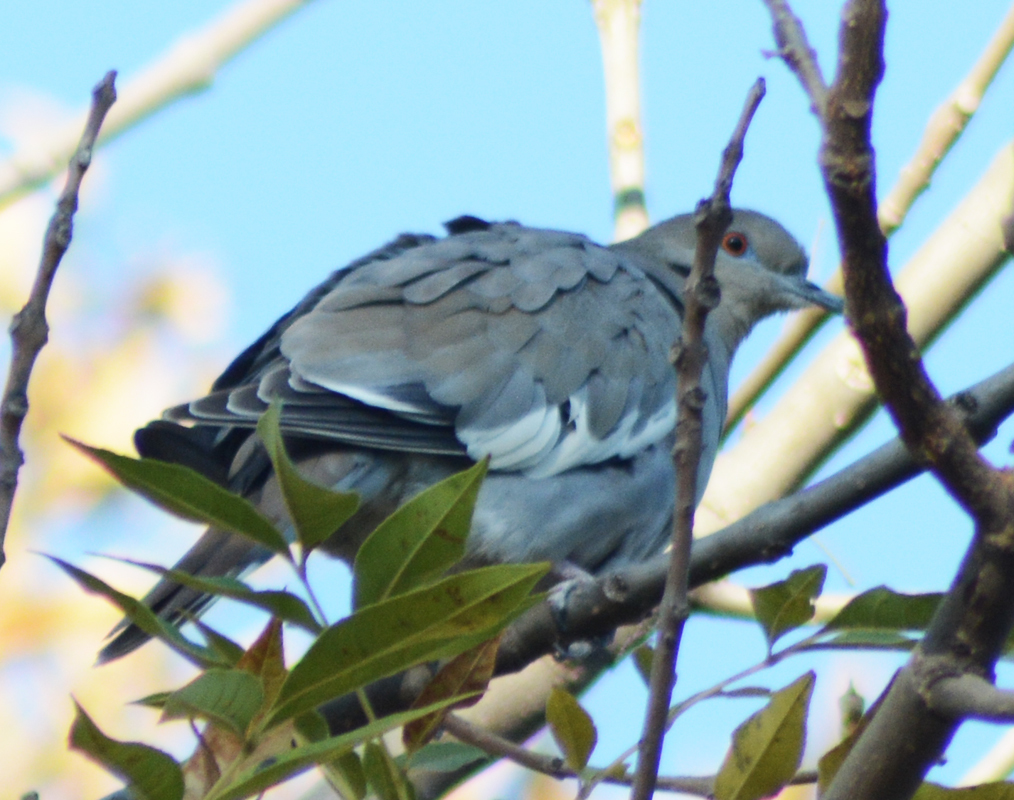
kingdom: Animalia
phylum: Chordata
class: Aves
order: Columbiformes
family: Columbidae
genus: Zenaida
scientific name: Zenaida asiatica
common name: White-winged dove
